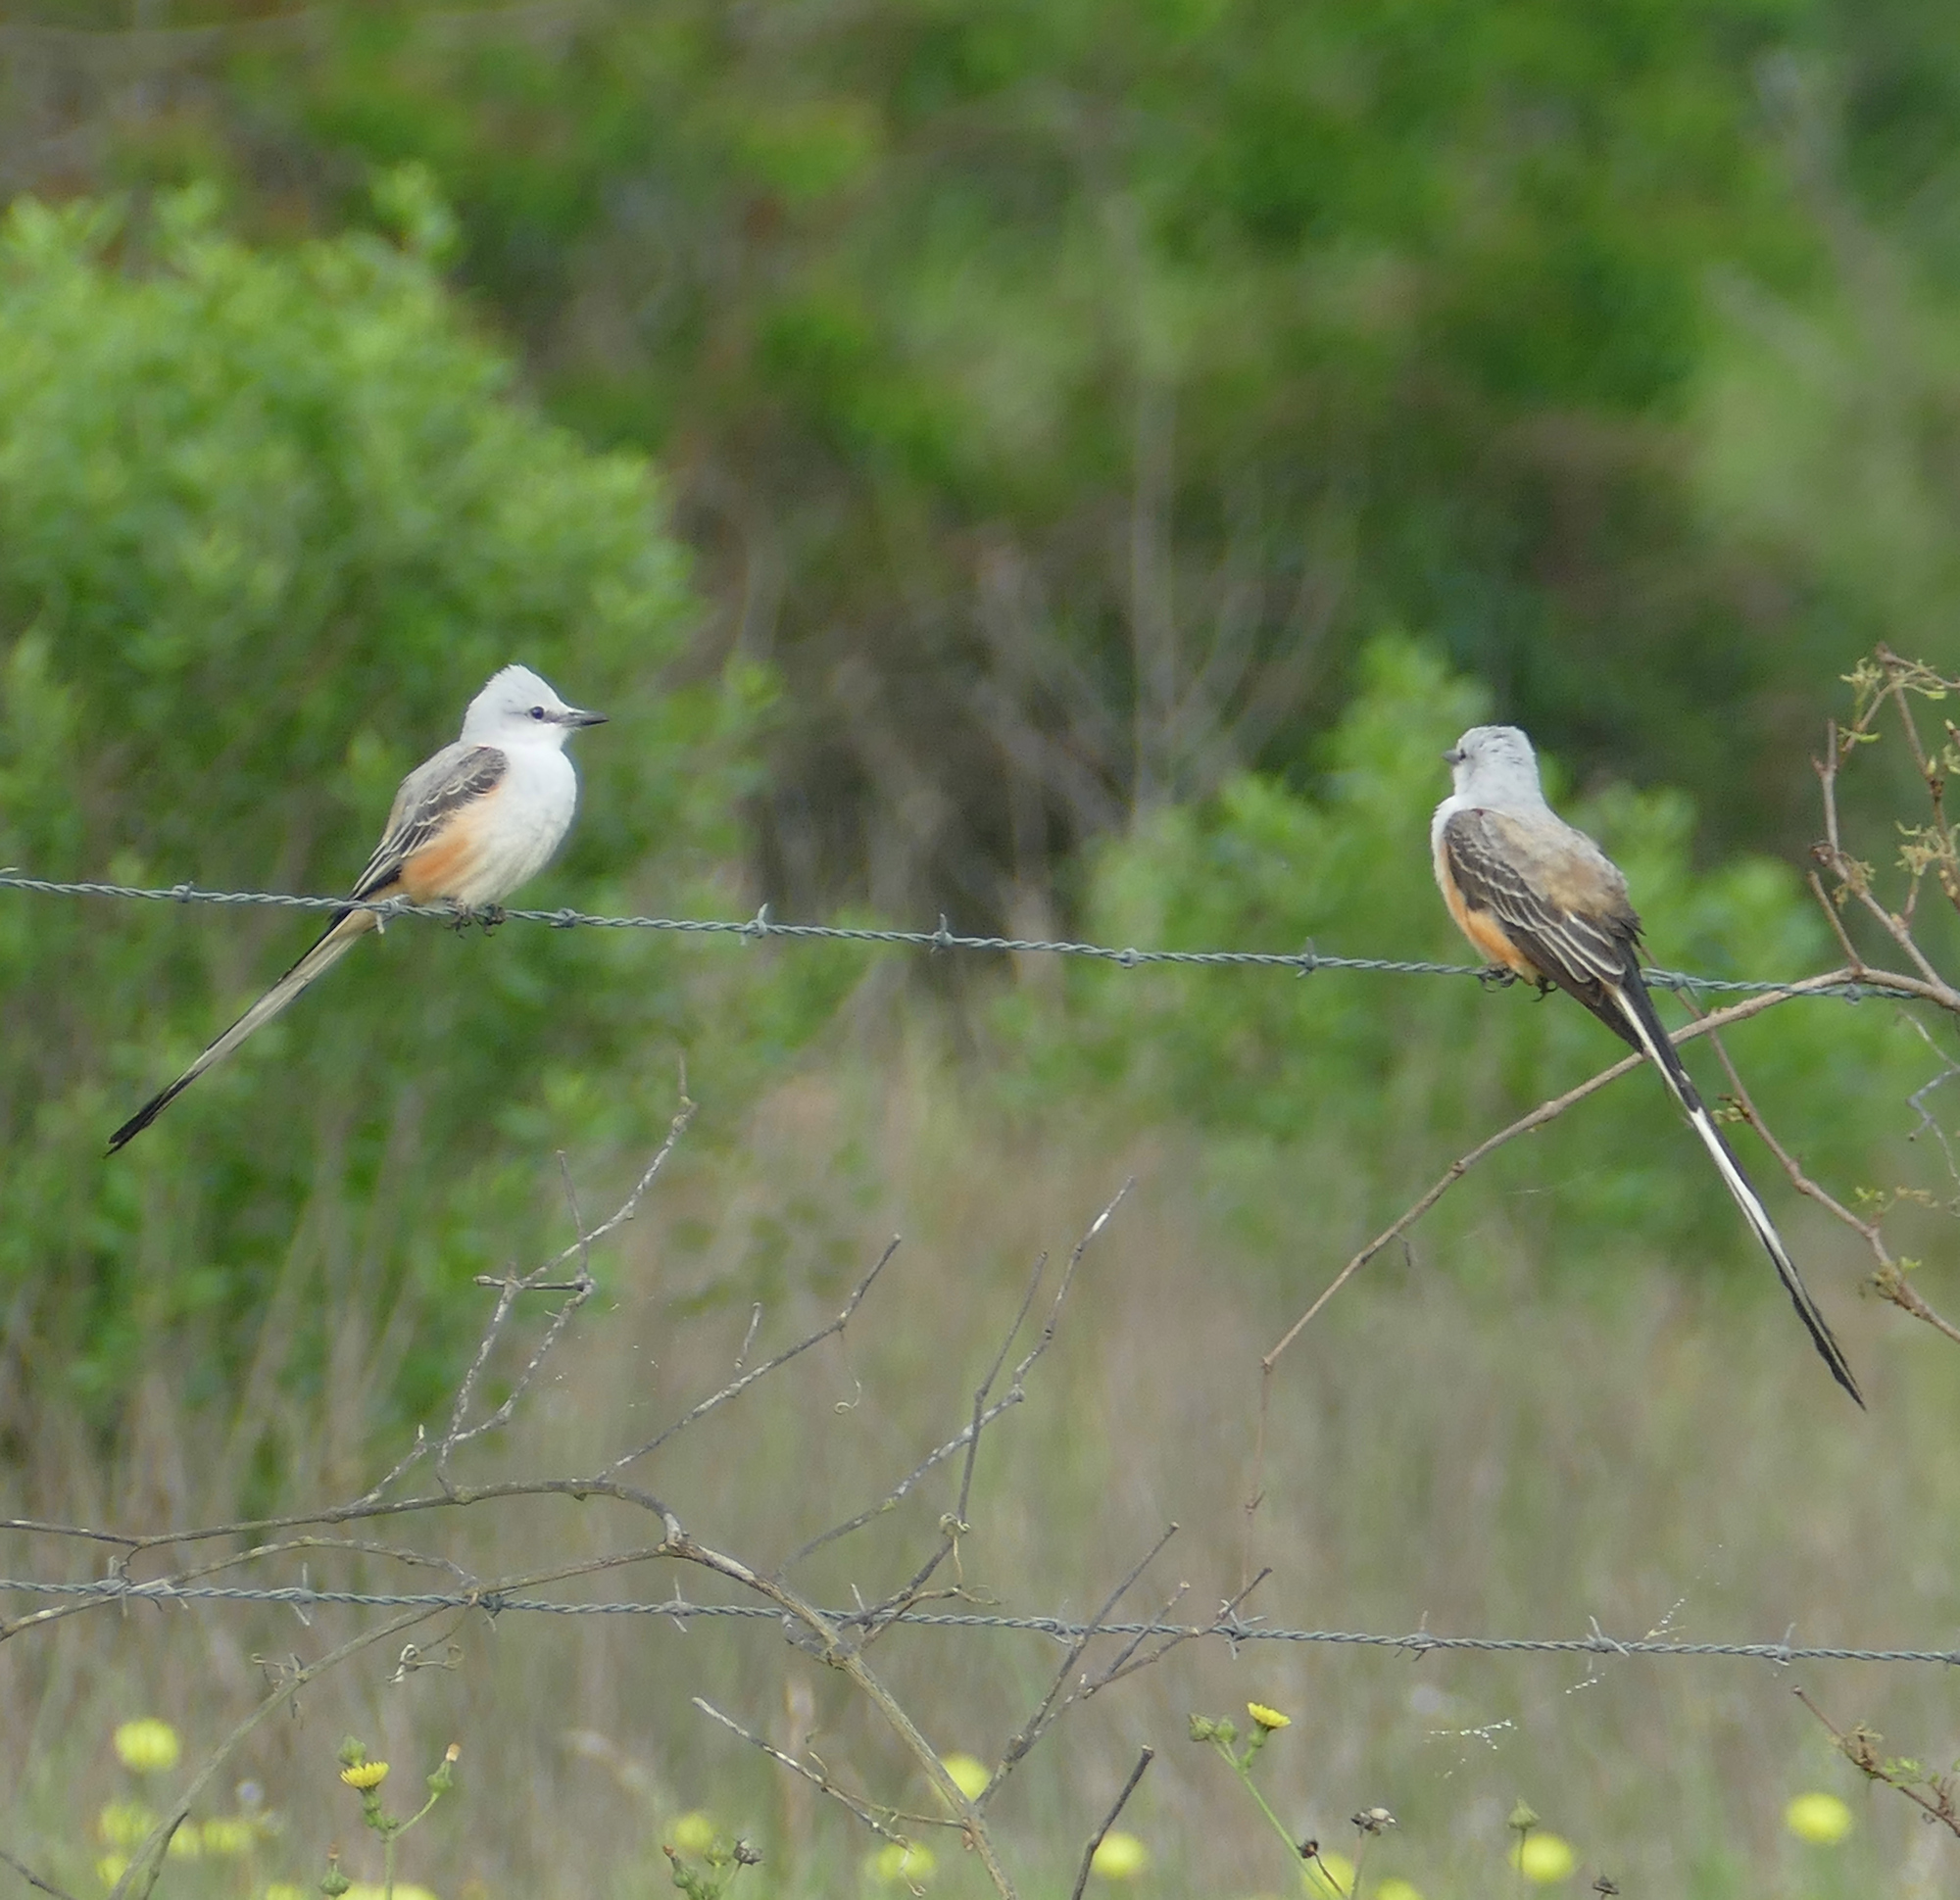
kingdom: Animalia
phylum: Chordata
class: Aves
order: Passeriformes
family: Tyrannidae
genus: Tyrannus
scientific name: Tyrannus forficatus
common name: Scissor-tailed flycatcher
